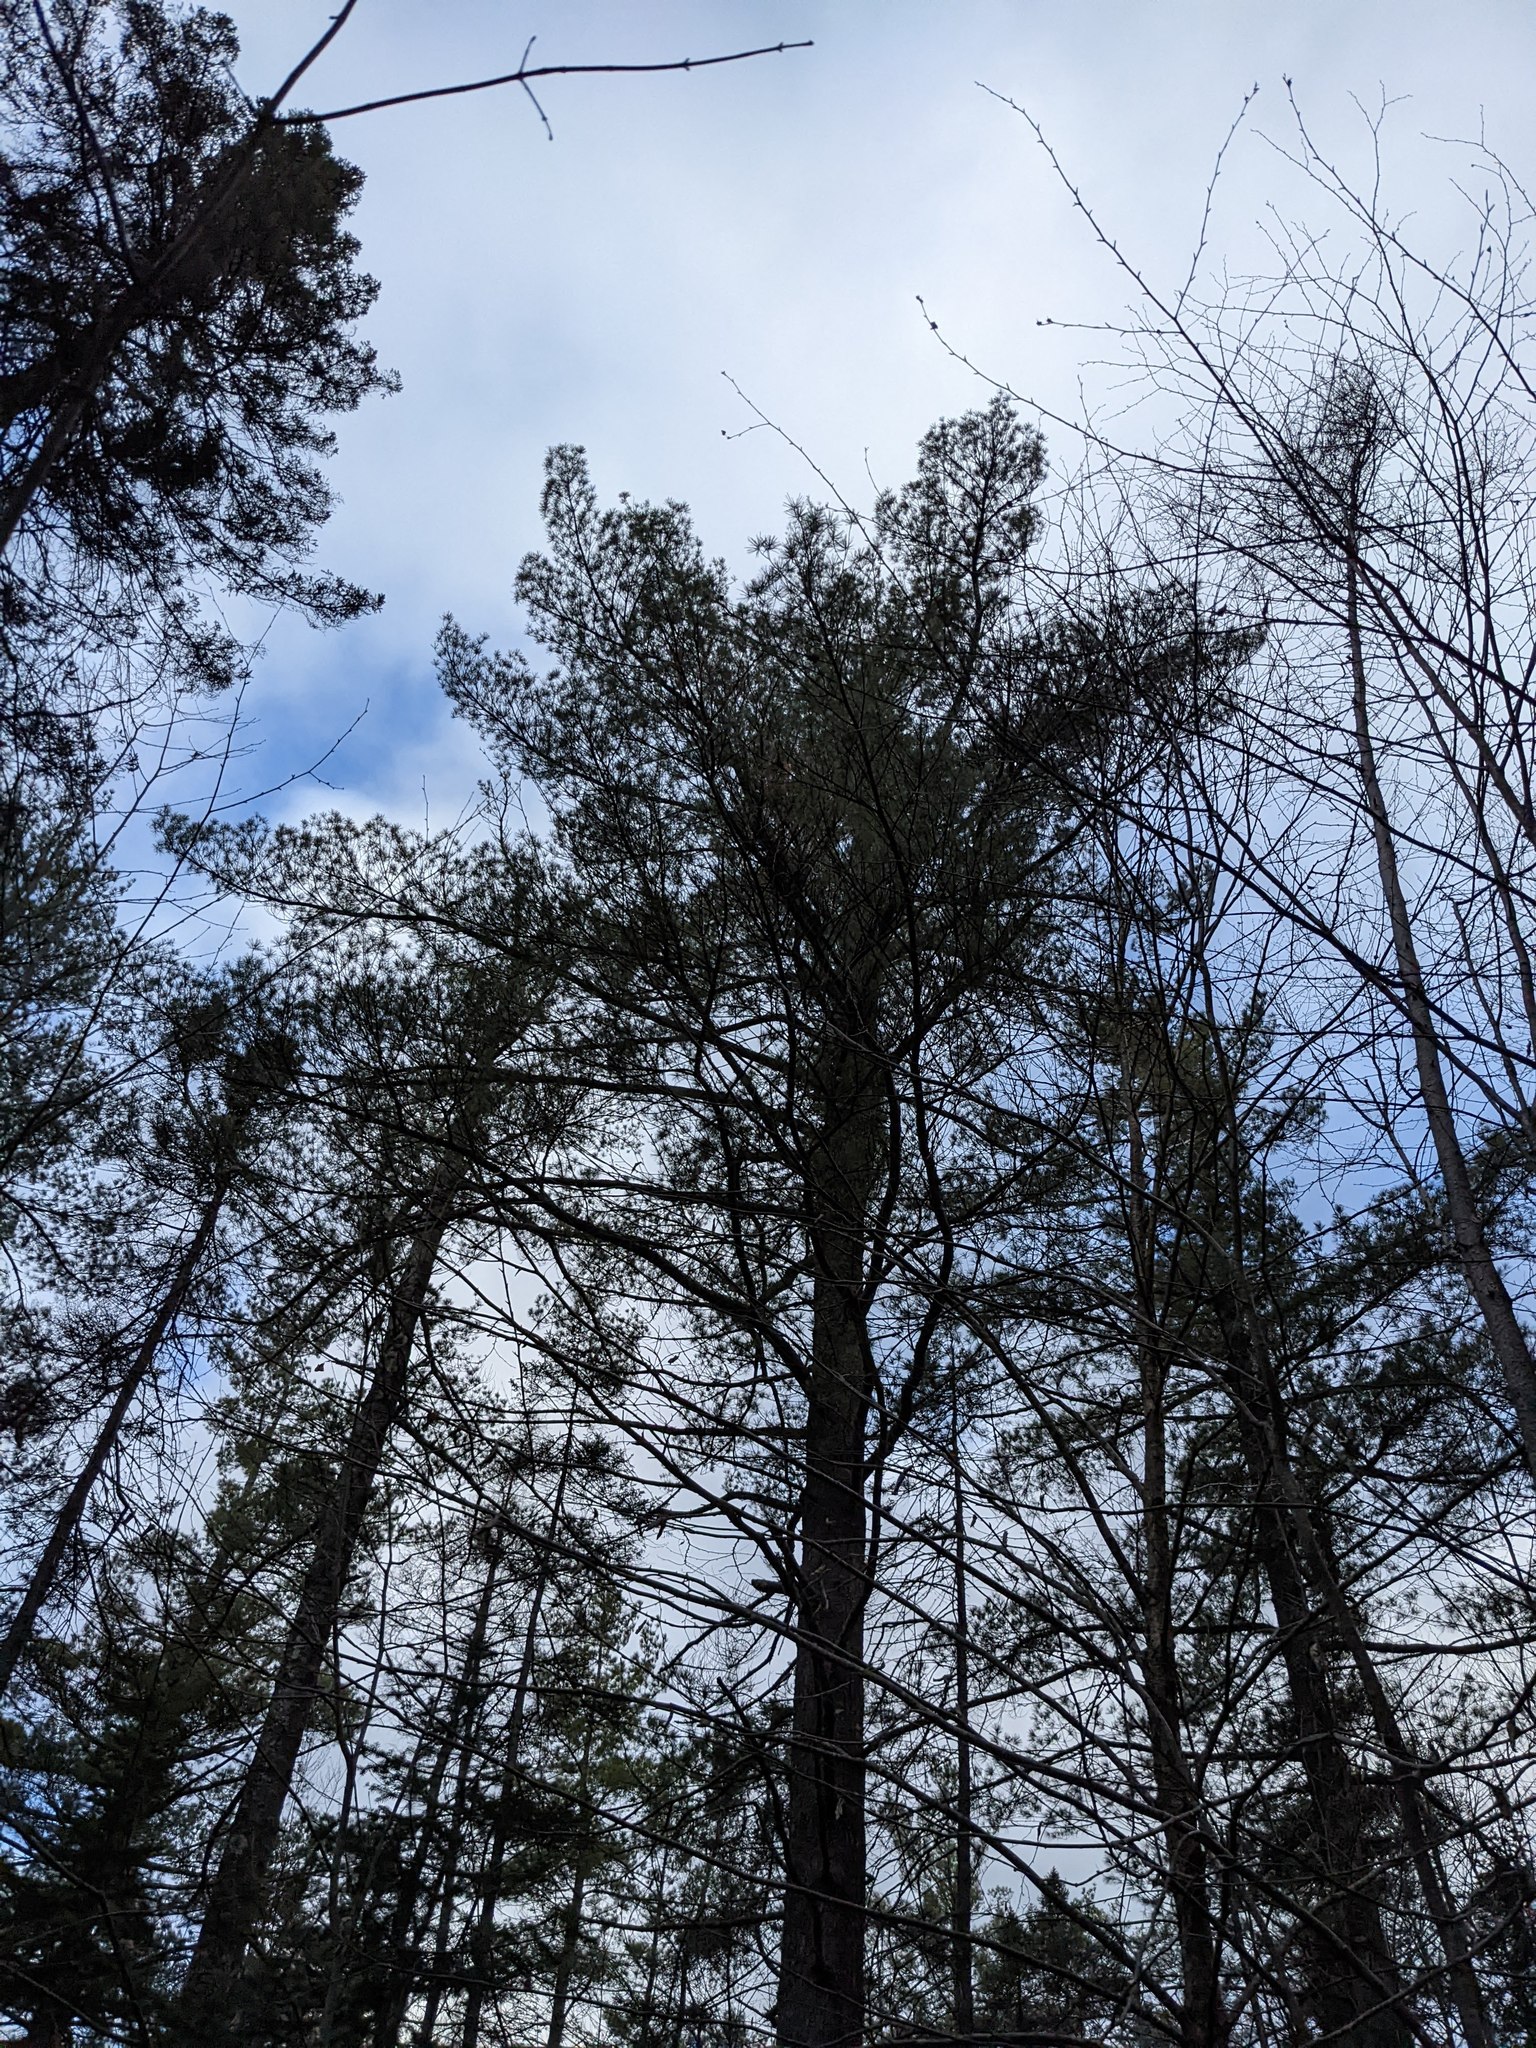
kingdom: Plantae
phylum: Tracheophyta
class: Pinopsida
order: Pinales
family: Pinaceae
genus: Pinus
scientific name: Pinus strobus
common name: Weymouth pine
